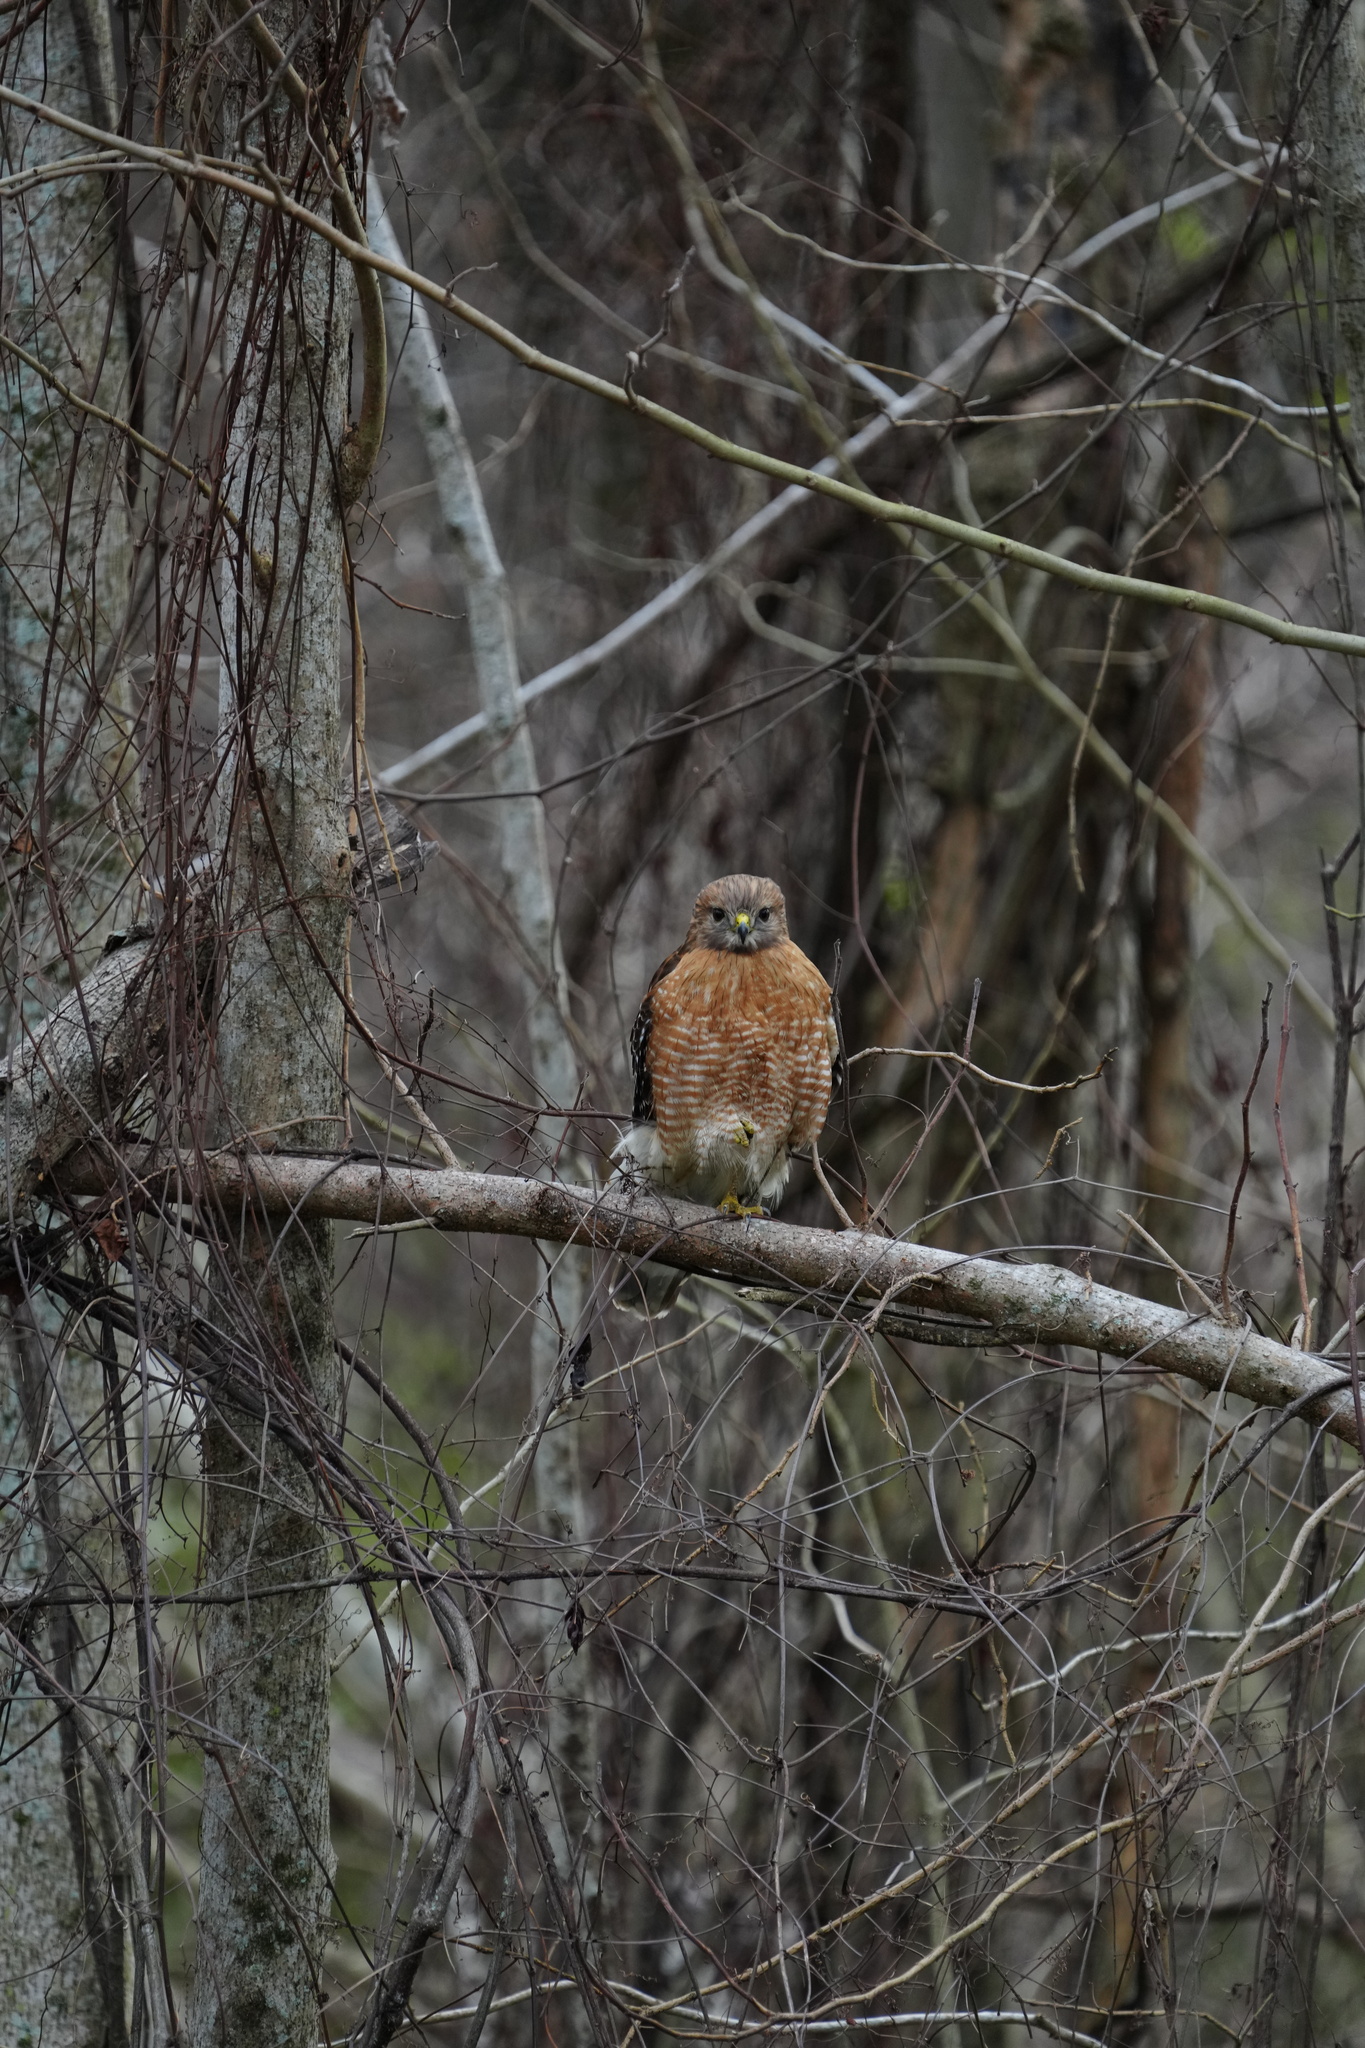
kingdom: Animalia
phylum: Chordata
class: Aves
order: Accipitriformes
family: Accipitridae
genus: Buteo
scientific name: Buteo lineatus
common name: Red-shouldered hawk
